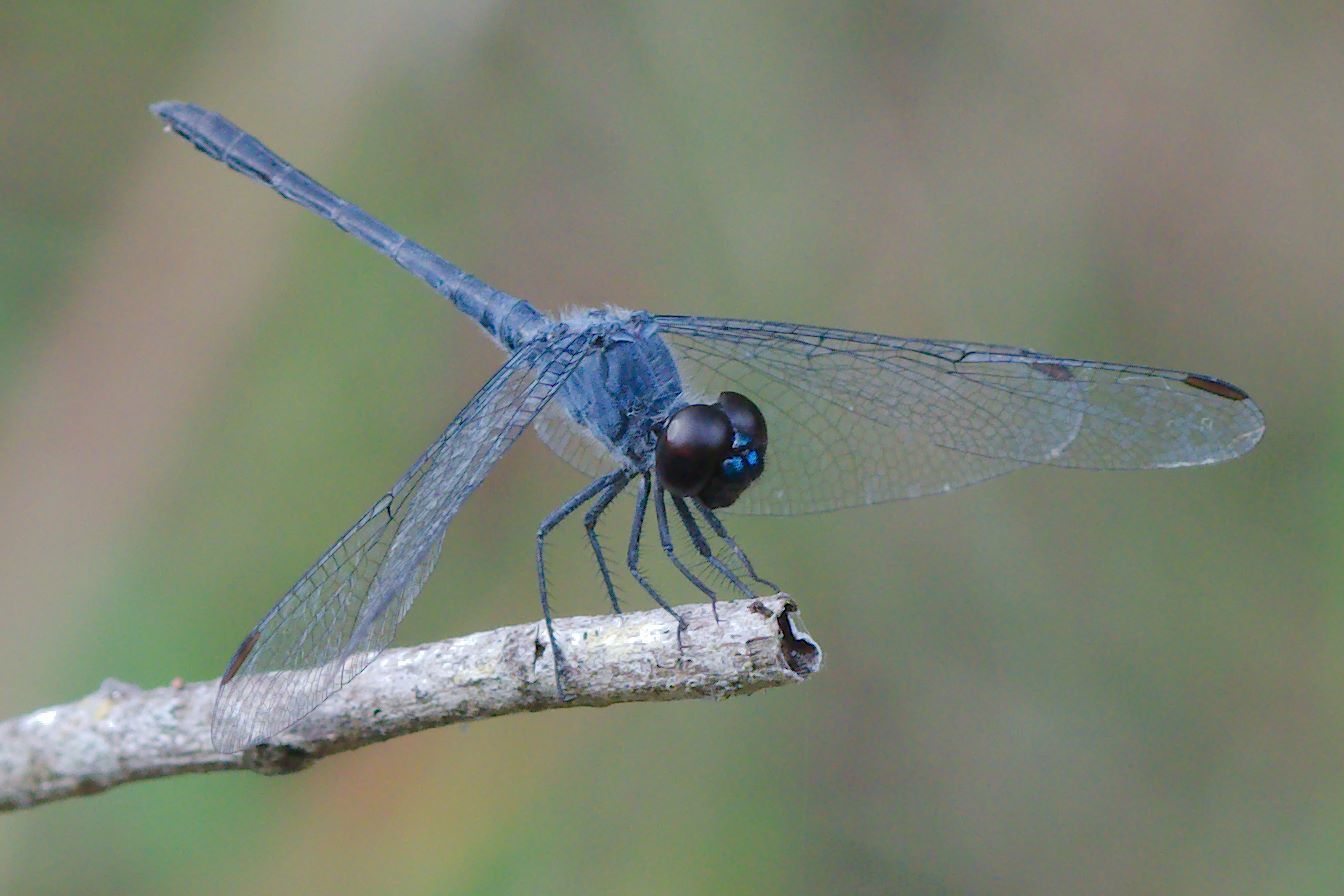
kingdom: Animalia
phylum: Arthropoda
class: Insecta
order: Odonata
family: Libellulidae
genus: Erythrodiplax
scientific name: Erythrodiplax berenice
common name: Seaside dragonlet
